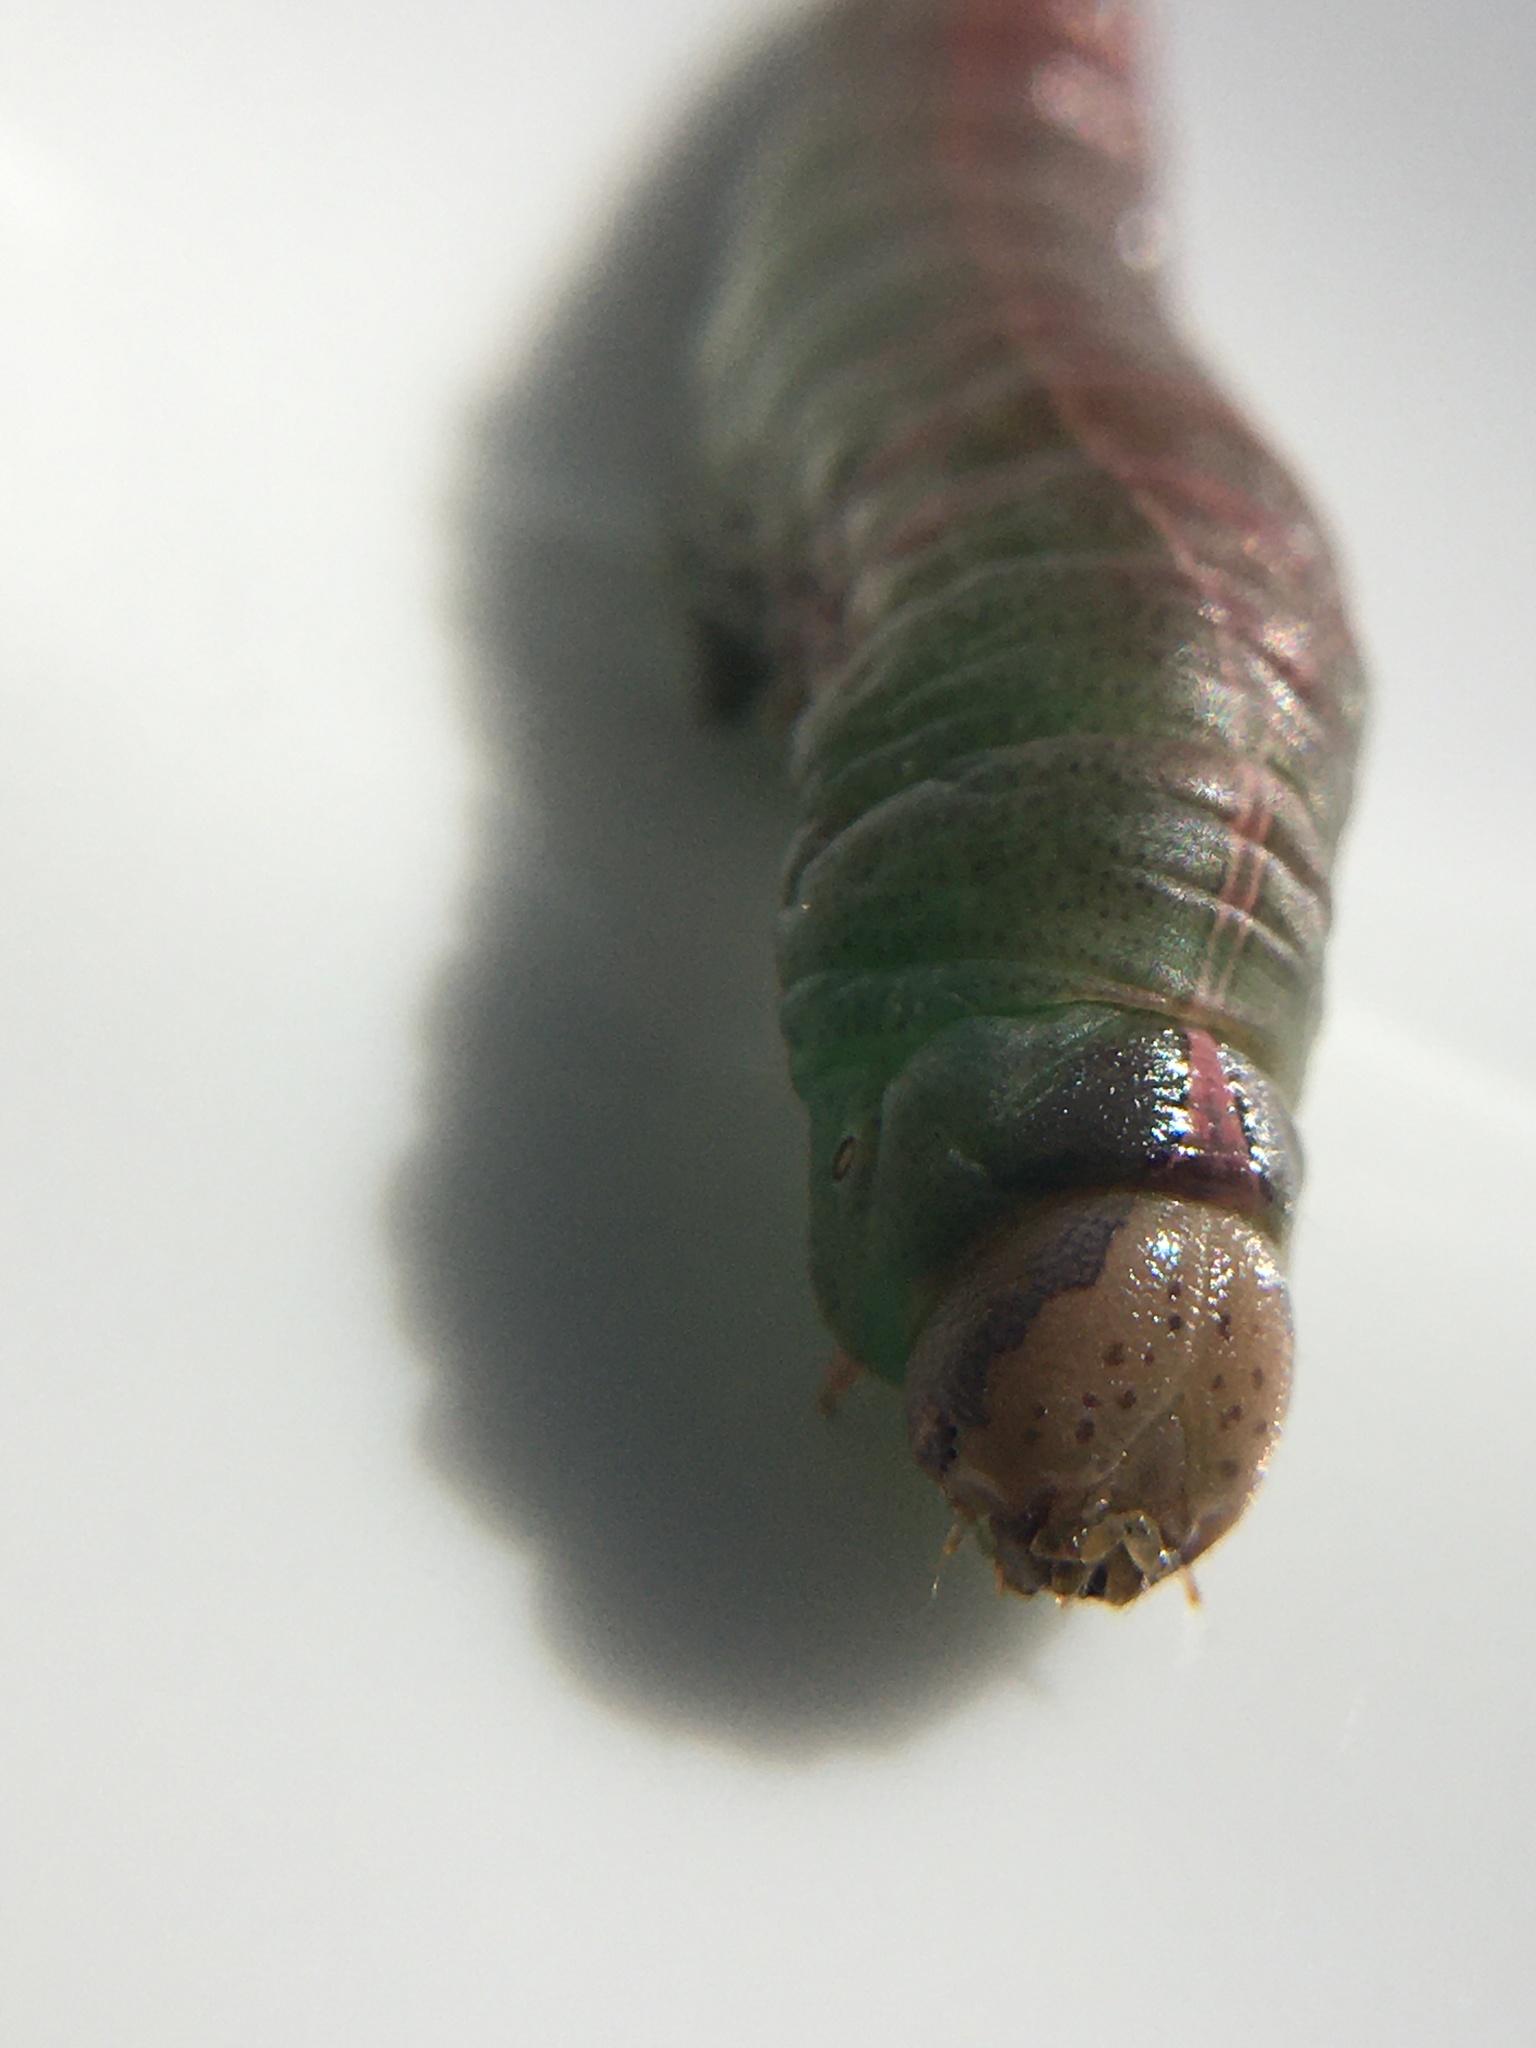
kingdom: Animalia
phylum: Arthropoda
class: Insecta
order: Lepidoptera
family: Notodontidae
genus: Heterocampa
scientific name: Heterocampa astartoides
